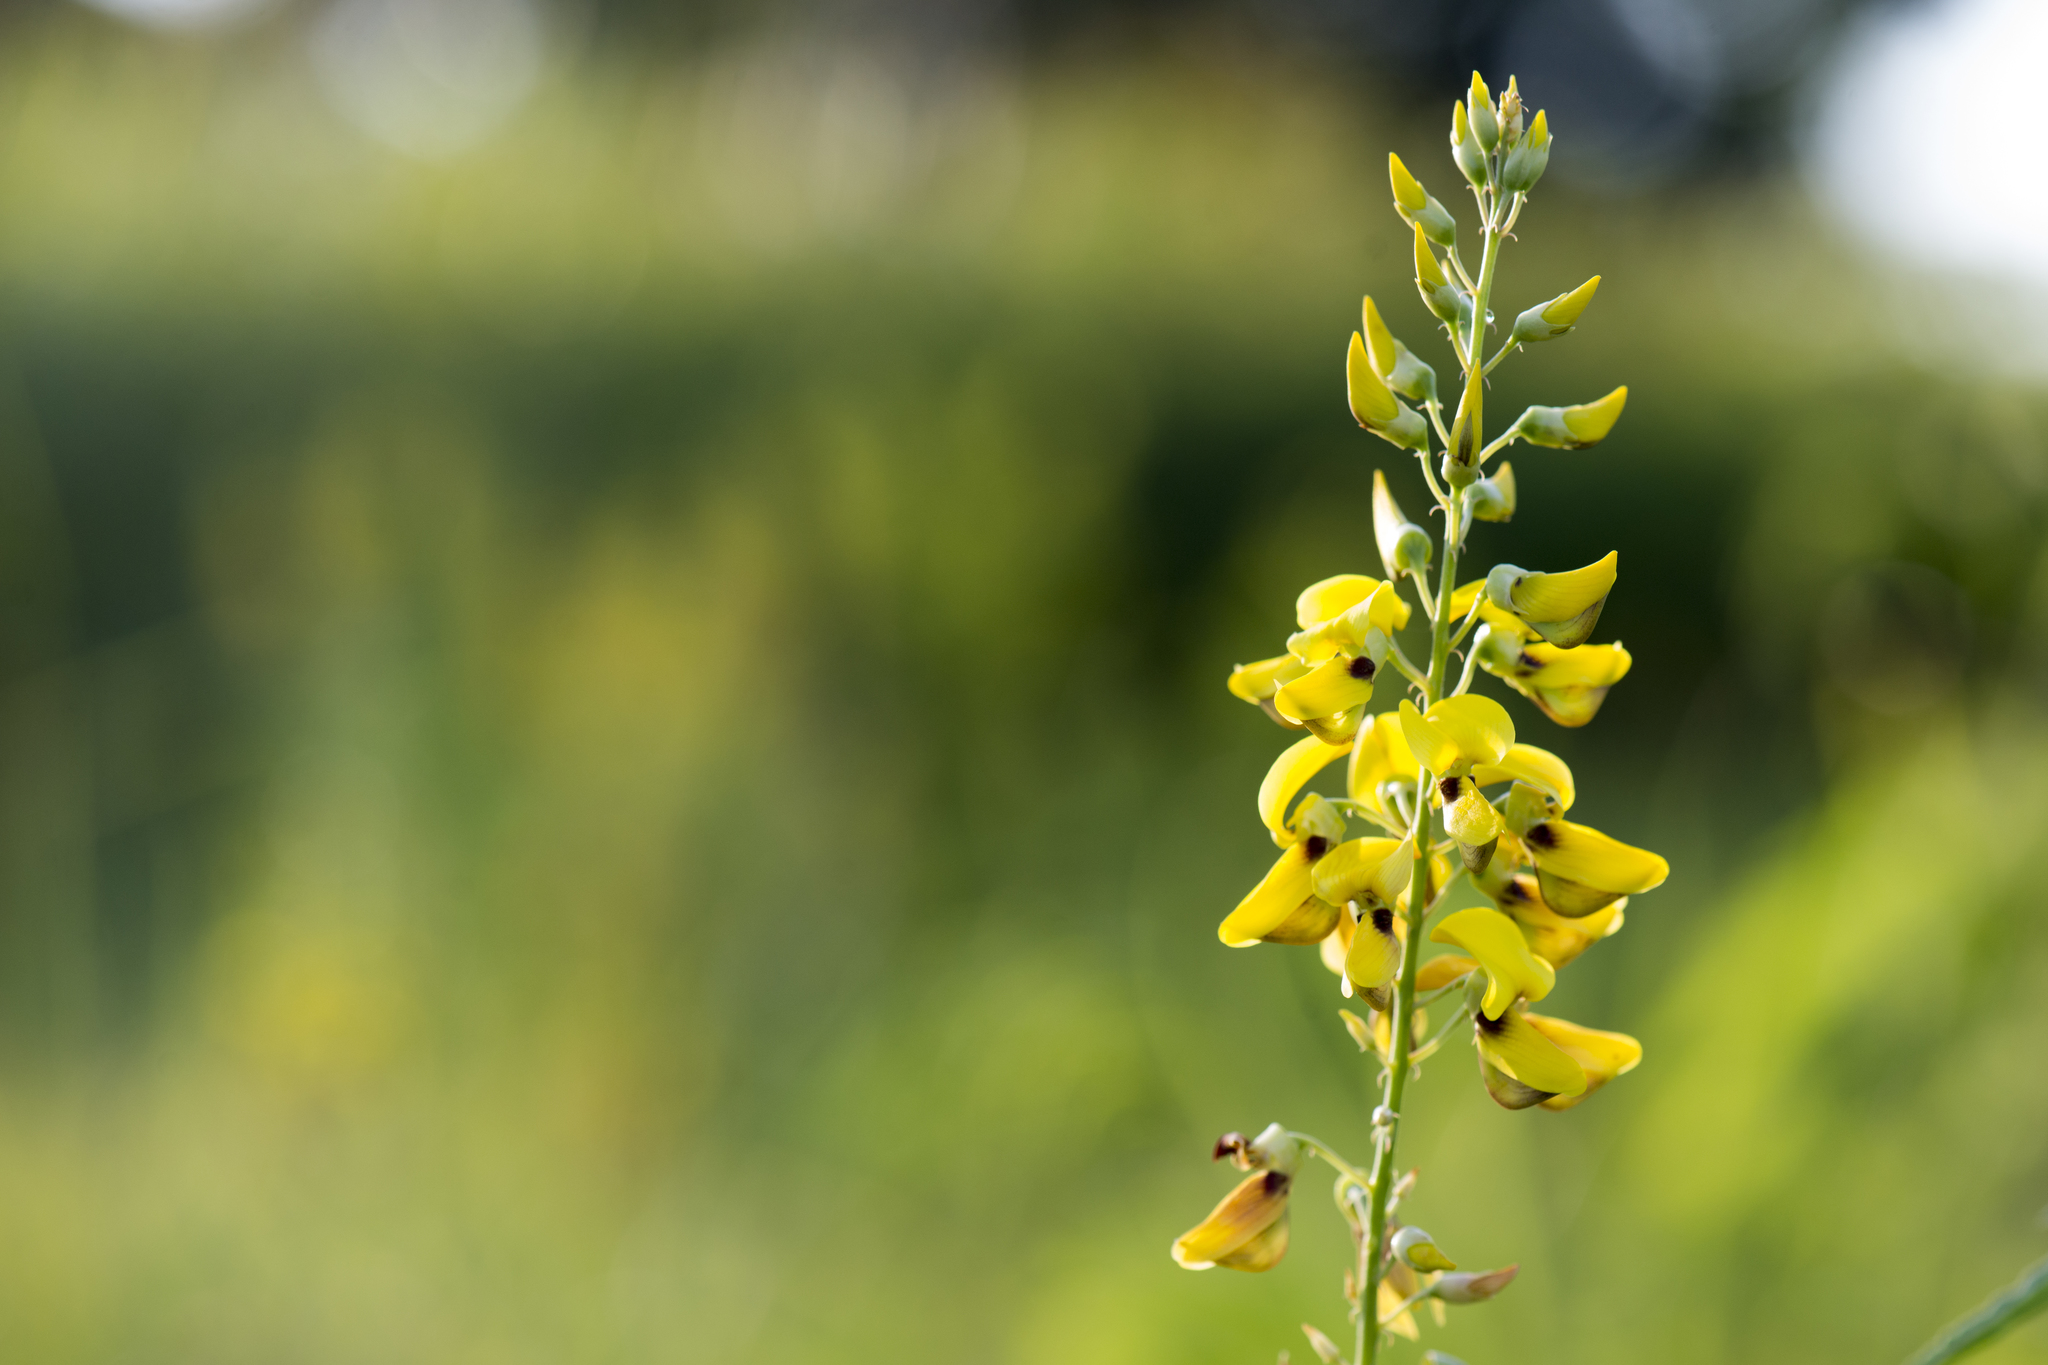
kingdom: Plantae
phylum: Tracheophyta
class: Magnoliopsida
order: Fabales
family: Fabaceae
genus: Crotalaria
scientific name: Crotalaria trichotoma
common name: West indian rattlebox
